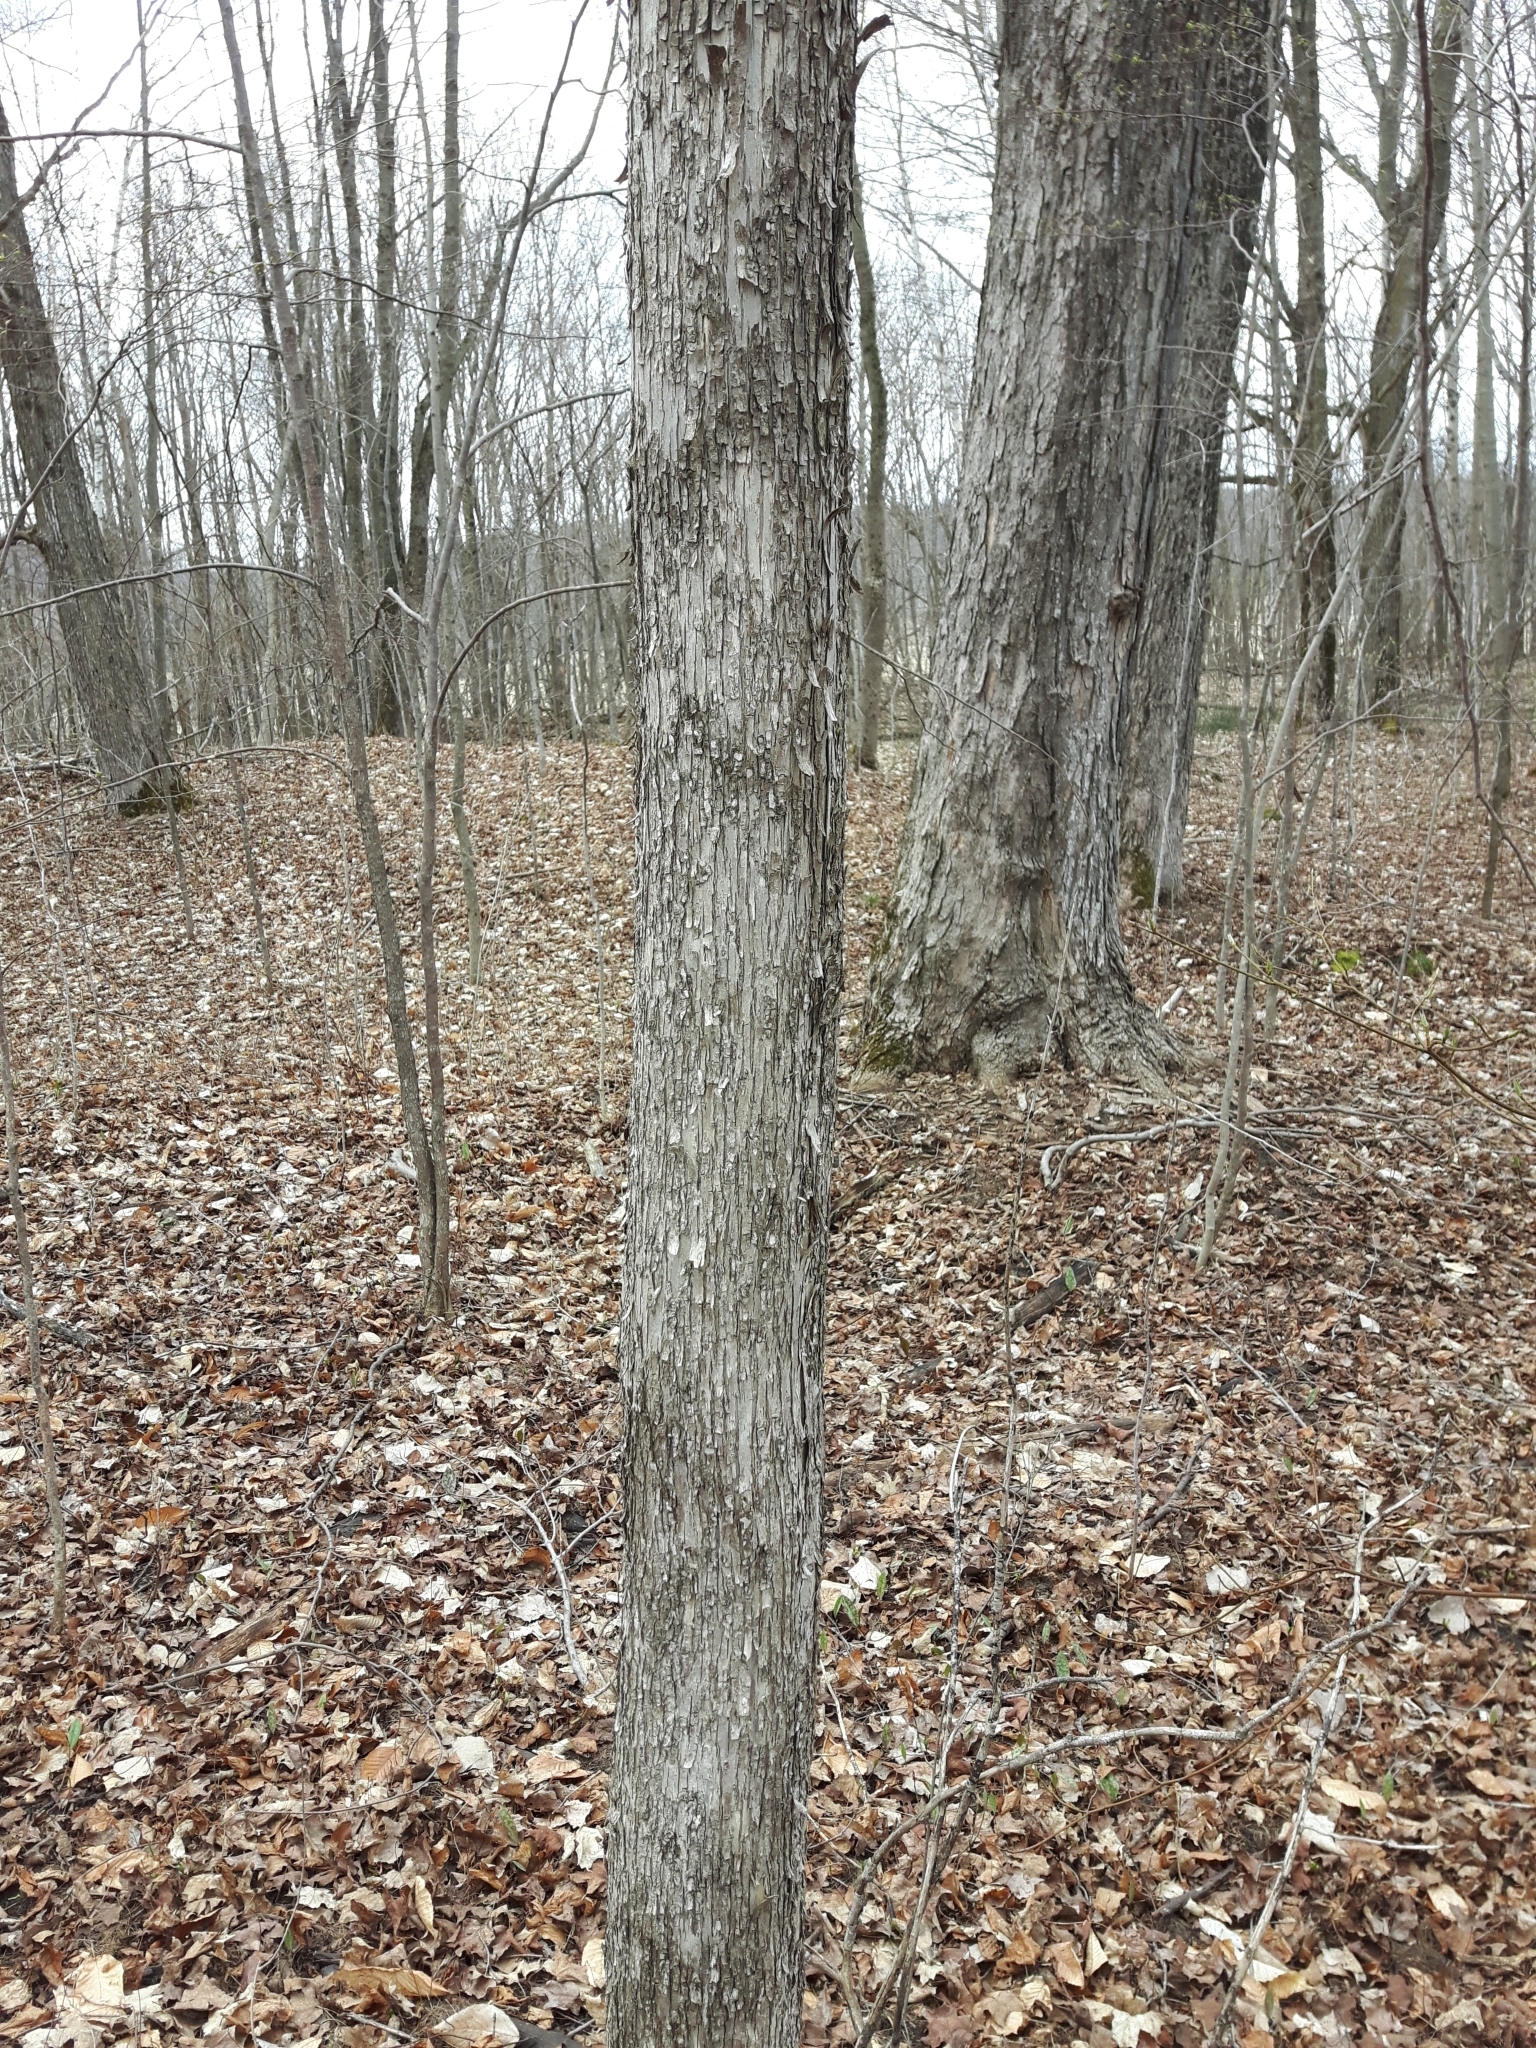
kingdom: Plantae
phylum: Tracheophyta
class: Magnoliopsida
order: Fagales
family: Betulaceae
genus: Ostrya
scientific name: Ostrya virginiana
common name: Ironwood
